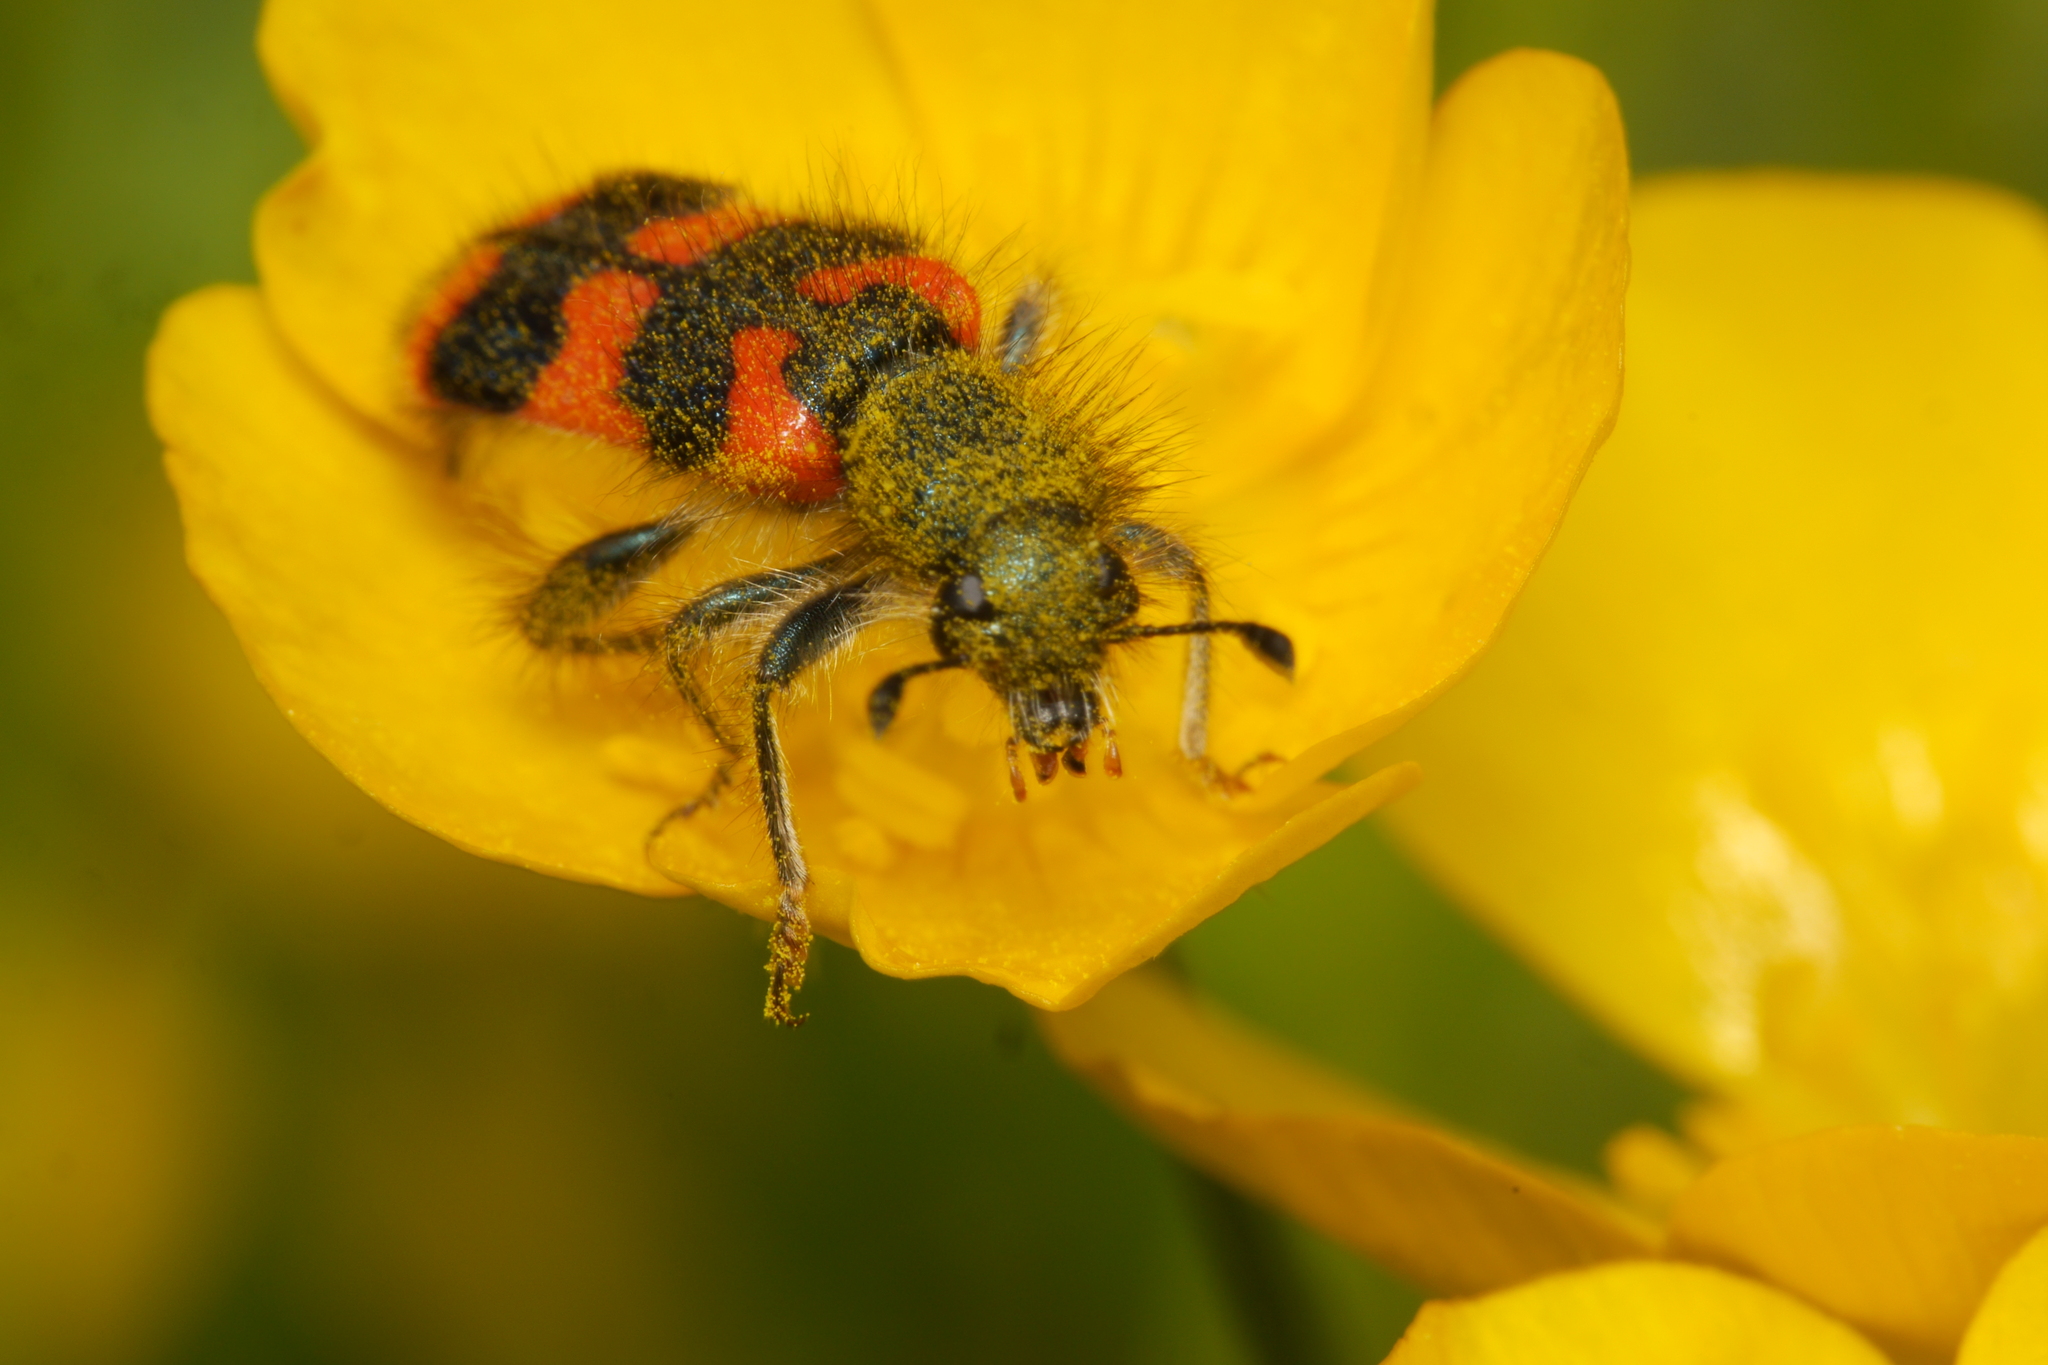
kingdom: Animalia
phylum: Arthropoda
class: Insecta
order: Coleoptera
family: Cleridae
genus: Trichodes
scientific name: Trichodes alvearius
